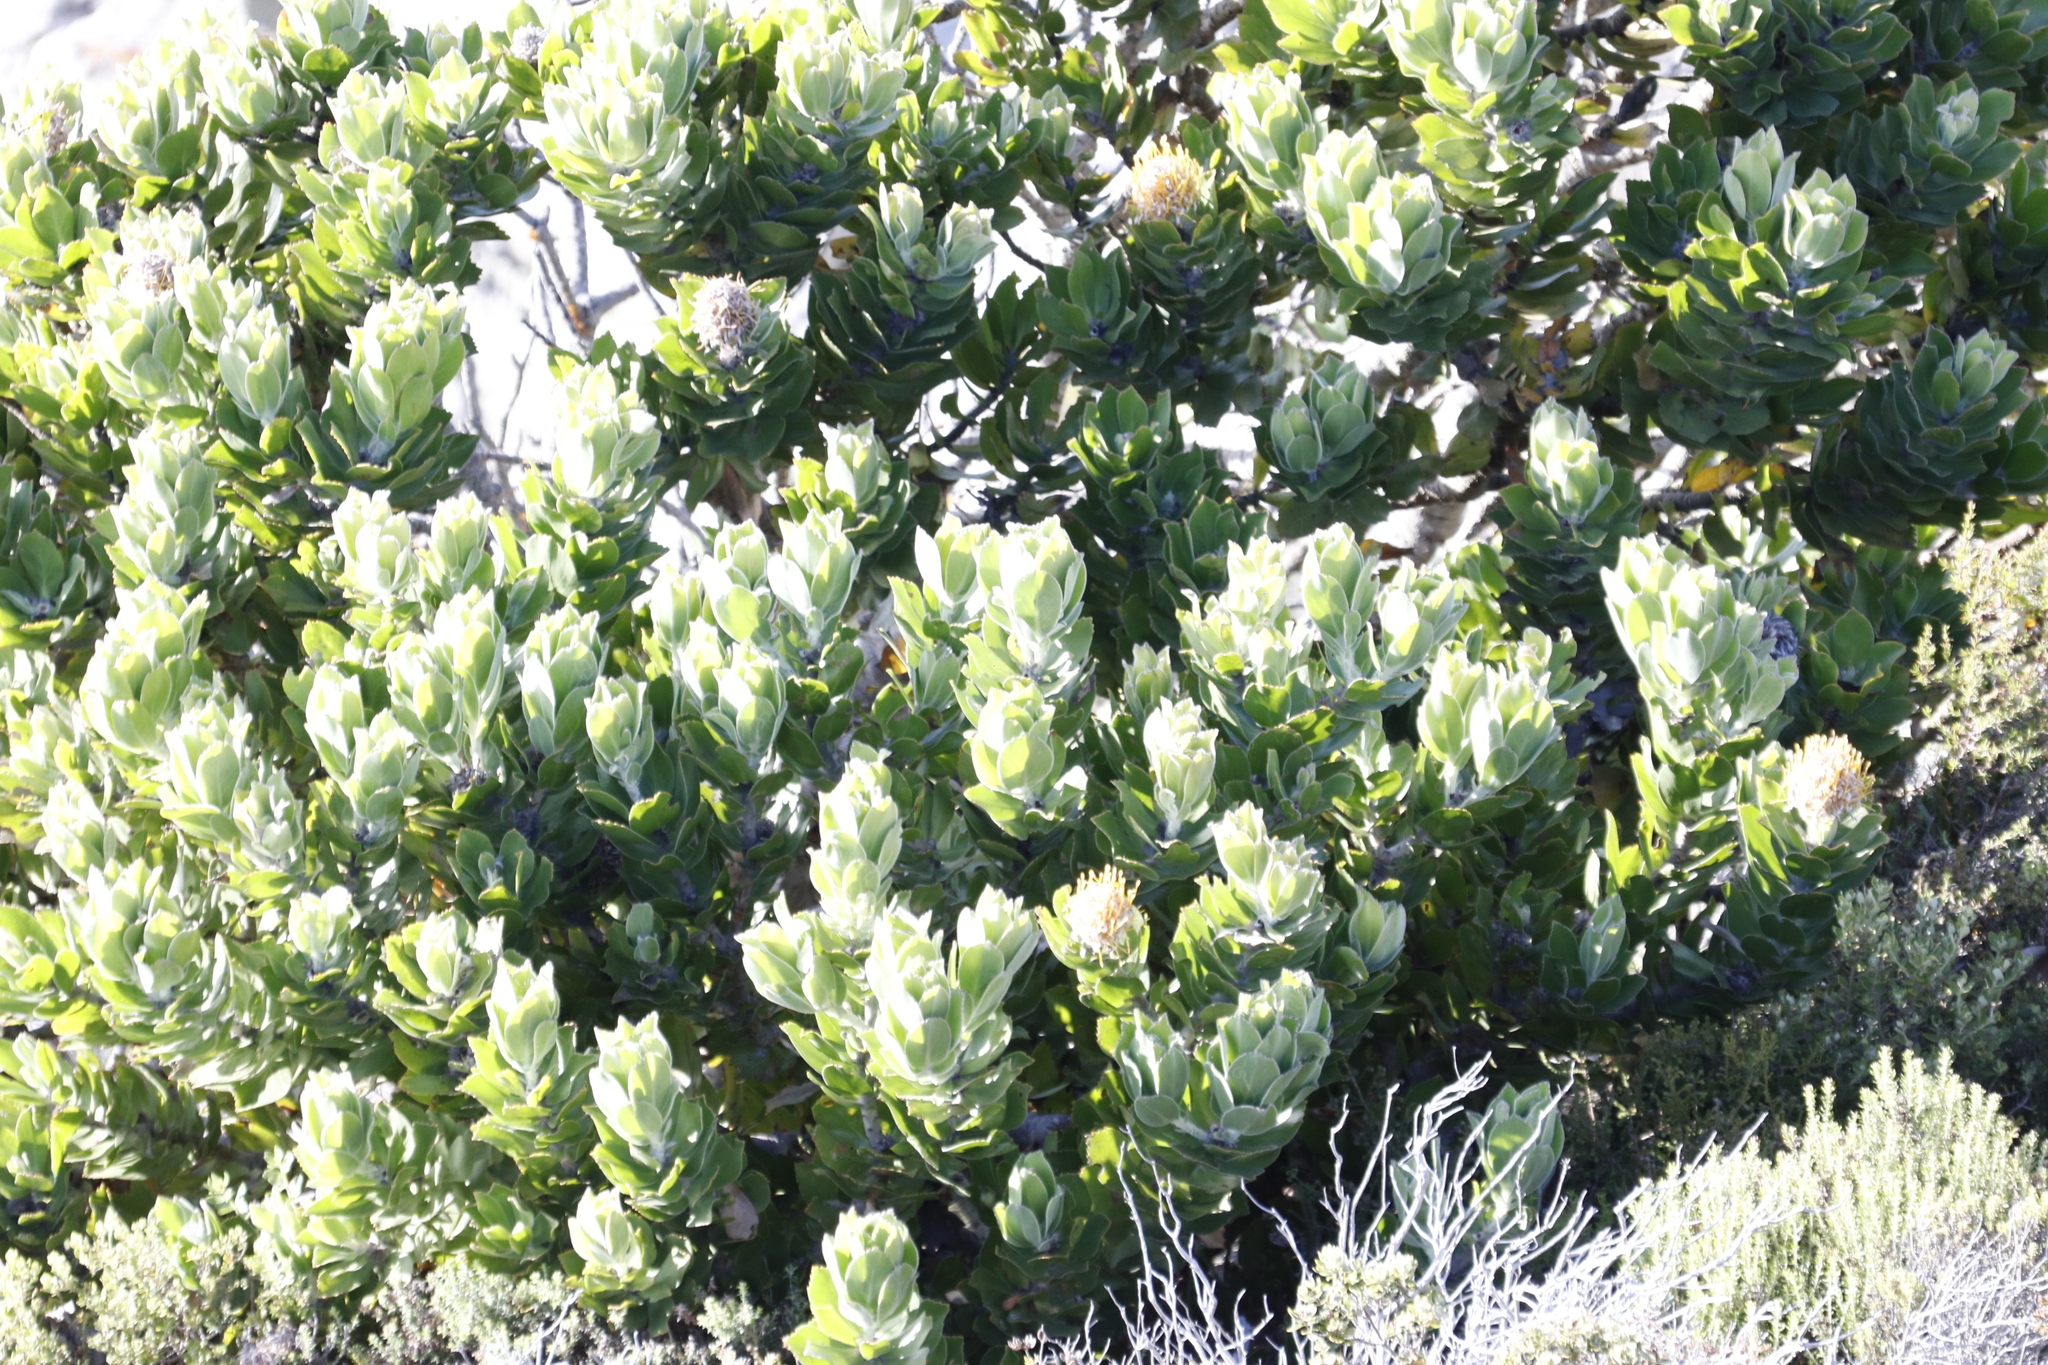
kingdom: Plantae
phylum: Tracheophyta
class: Magnoliopsida
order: Proteales
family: Proteaceae
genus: Leucospermum
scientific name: Leucospermum conocarpodendron
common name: Tree pincushion
